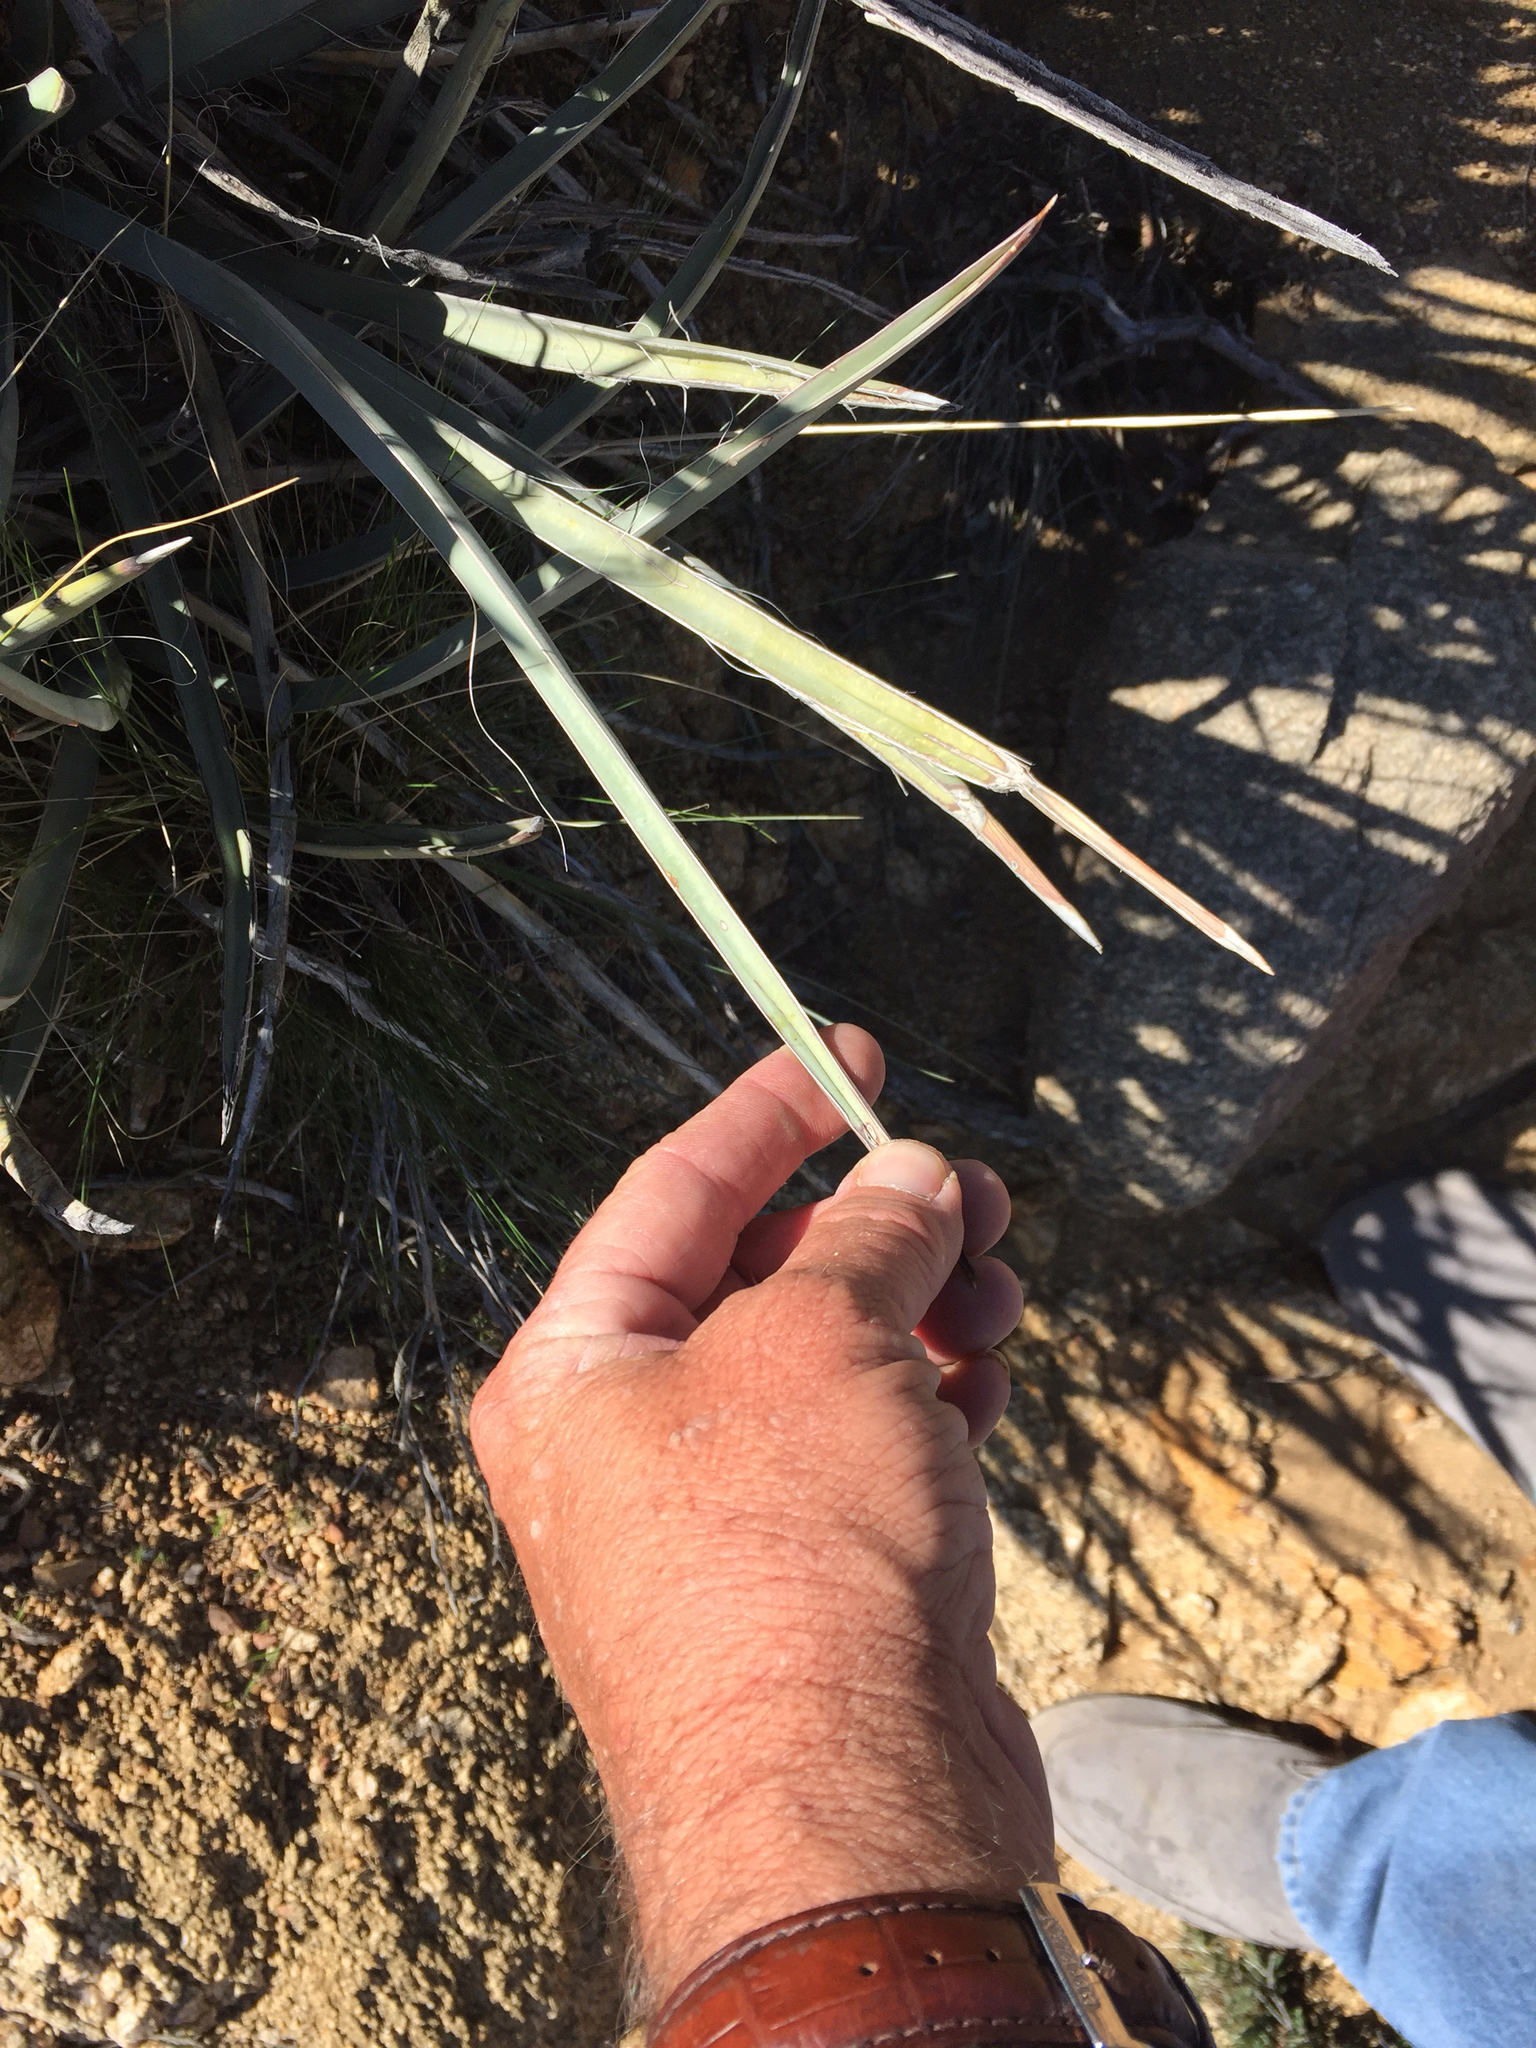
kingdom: Plantae
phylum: Tracheophyta
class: Liliopsida
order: Asparagales
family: Asparagaceae
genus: Yucca
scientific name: Yucca baccata
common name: Banana yucca
